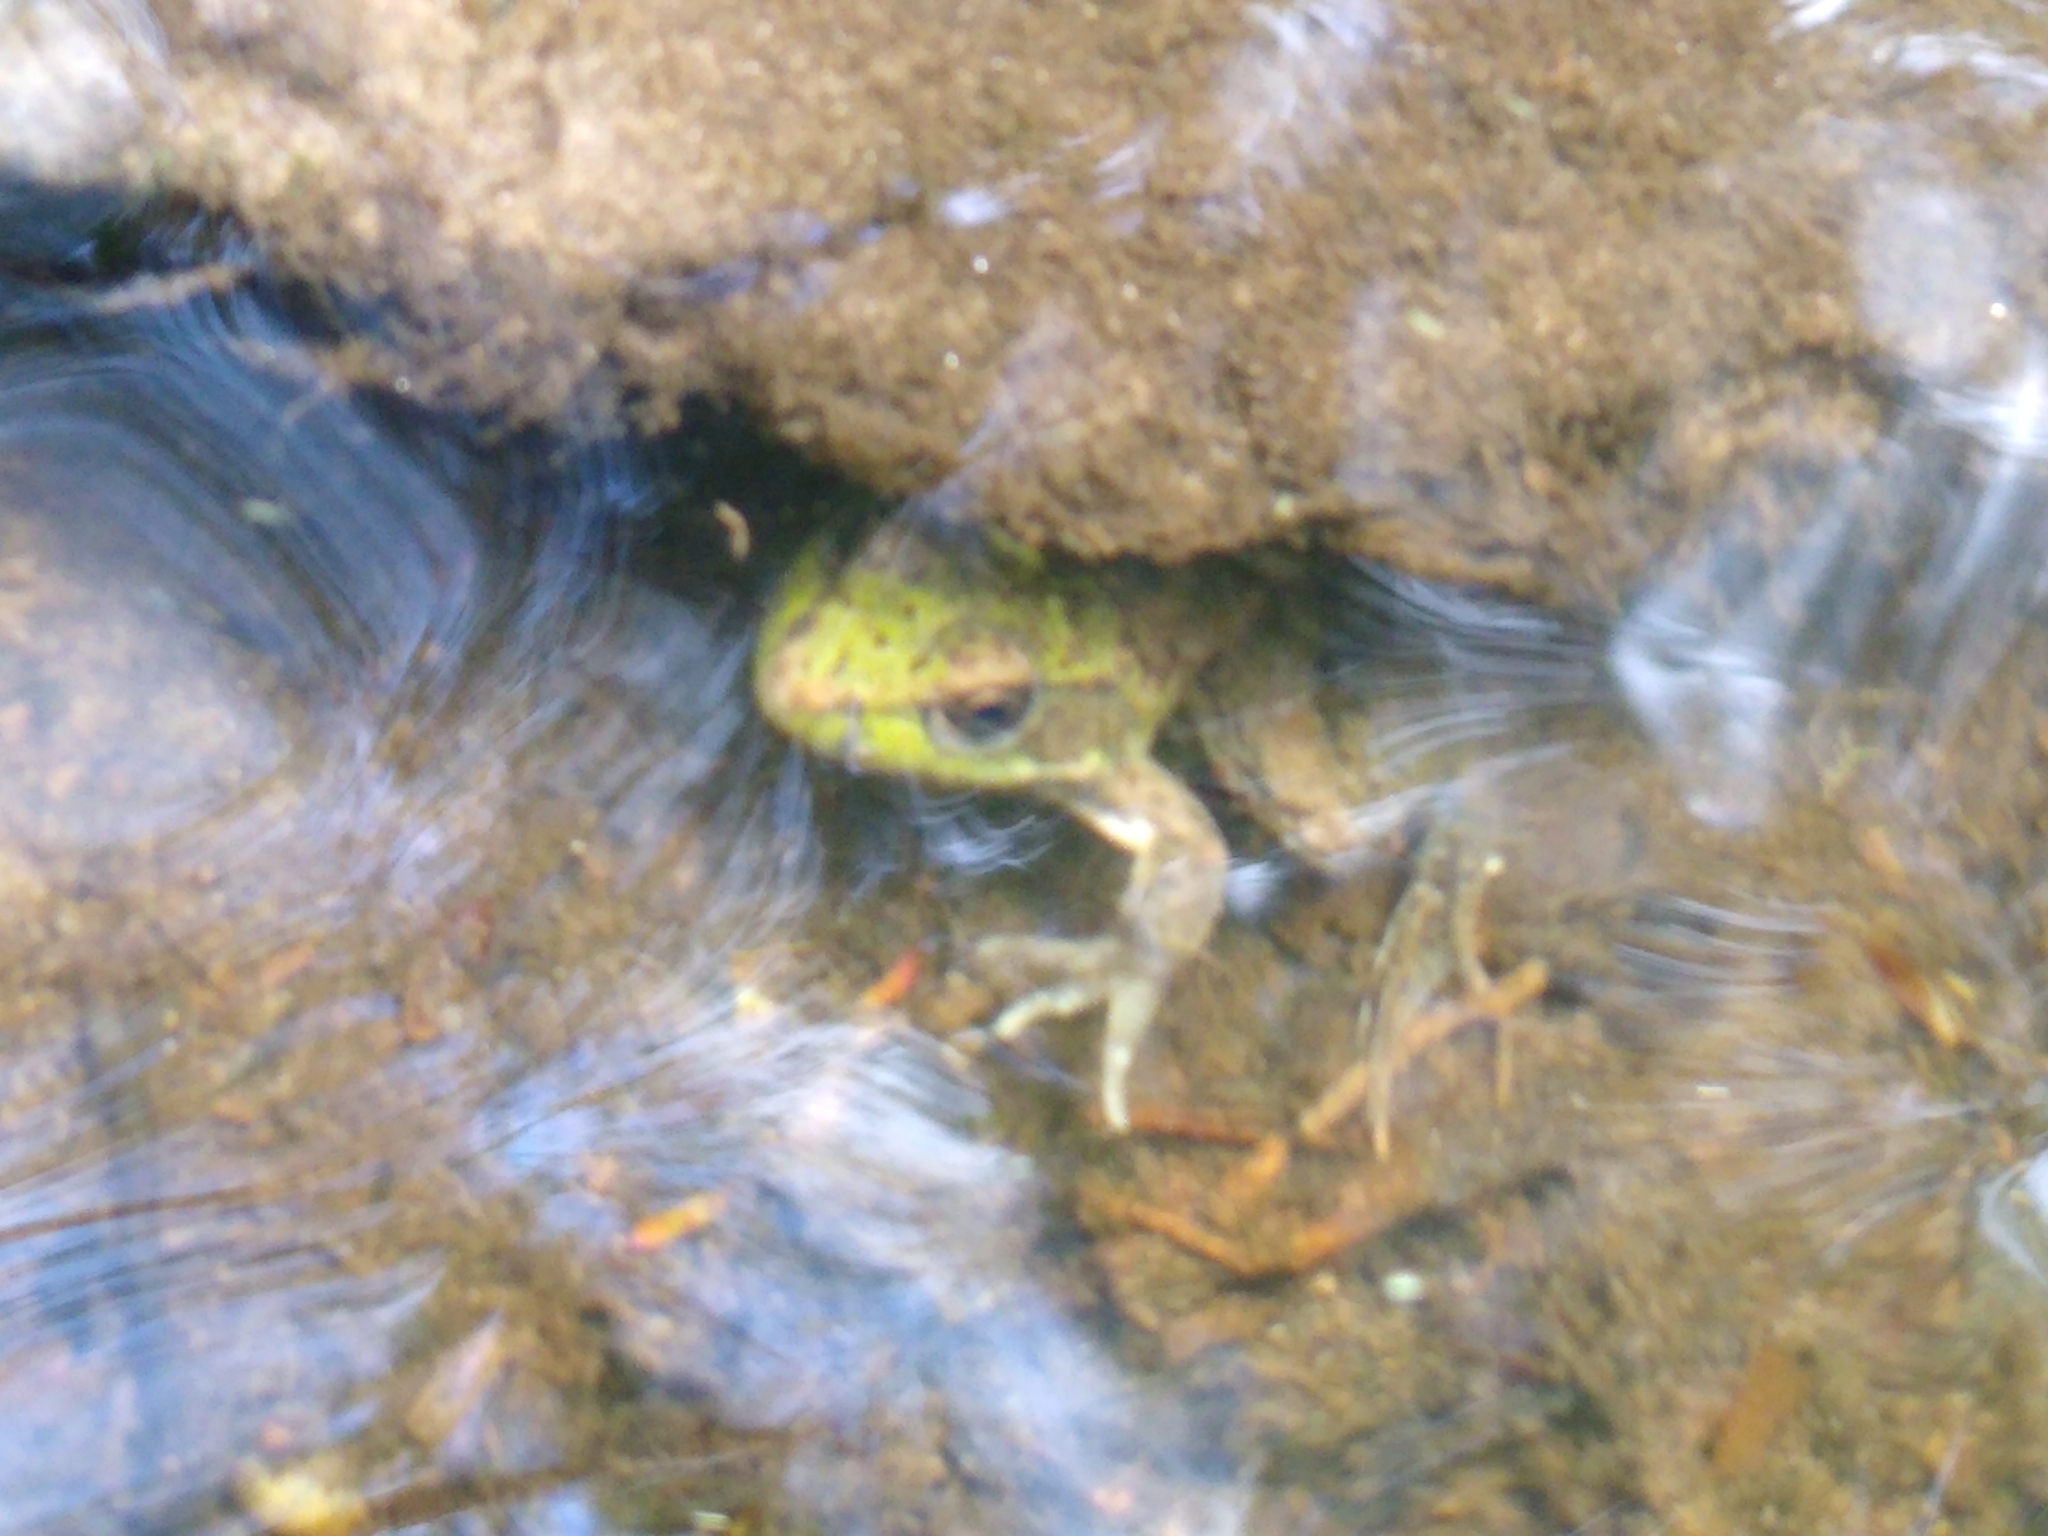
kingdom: Animalia
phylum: Chordata
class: Amphibia
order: Anura
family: Ranidae
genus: Lithobates
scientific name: Lithobates clamitans
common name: Green frog
